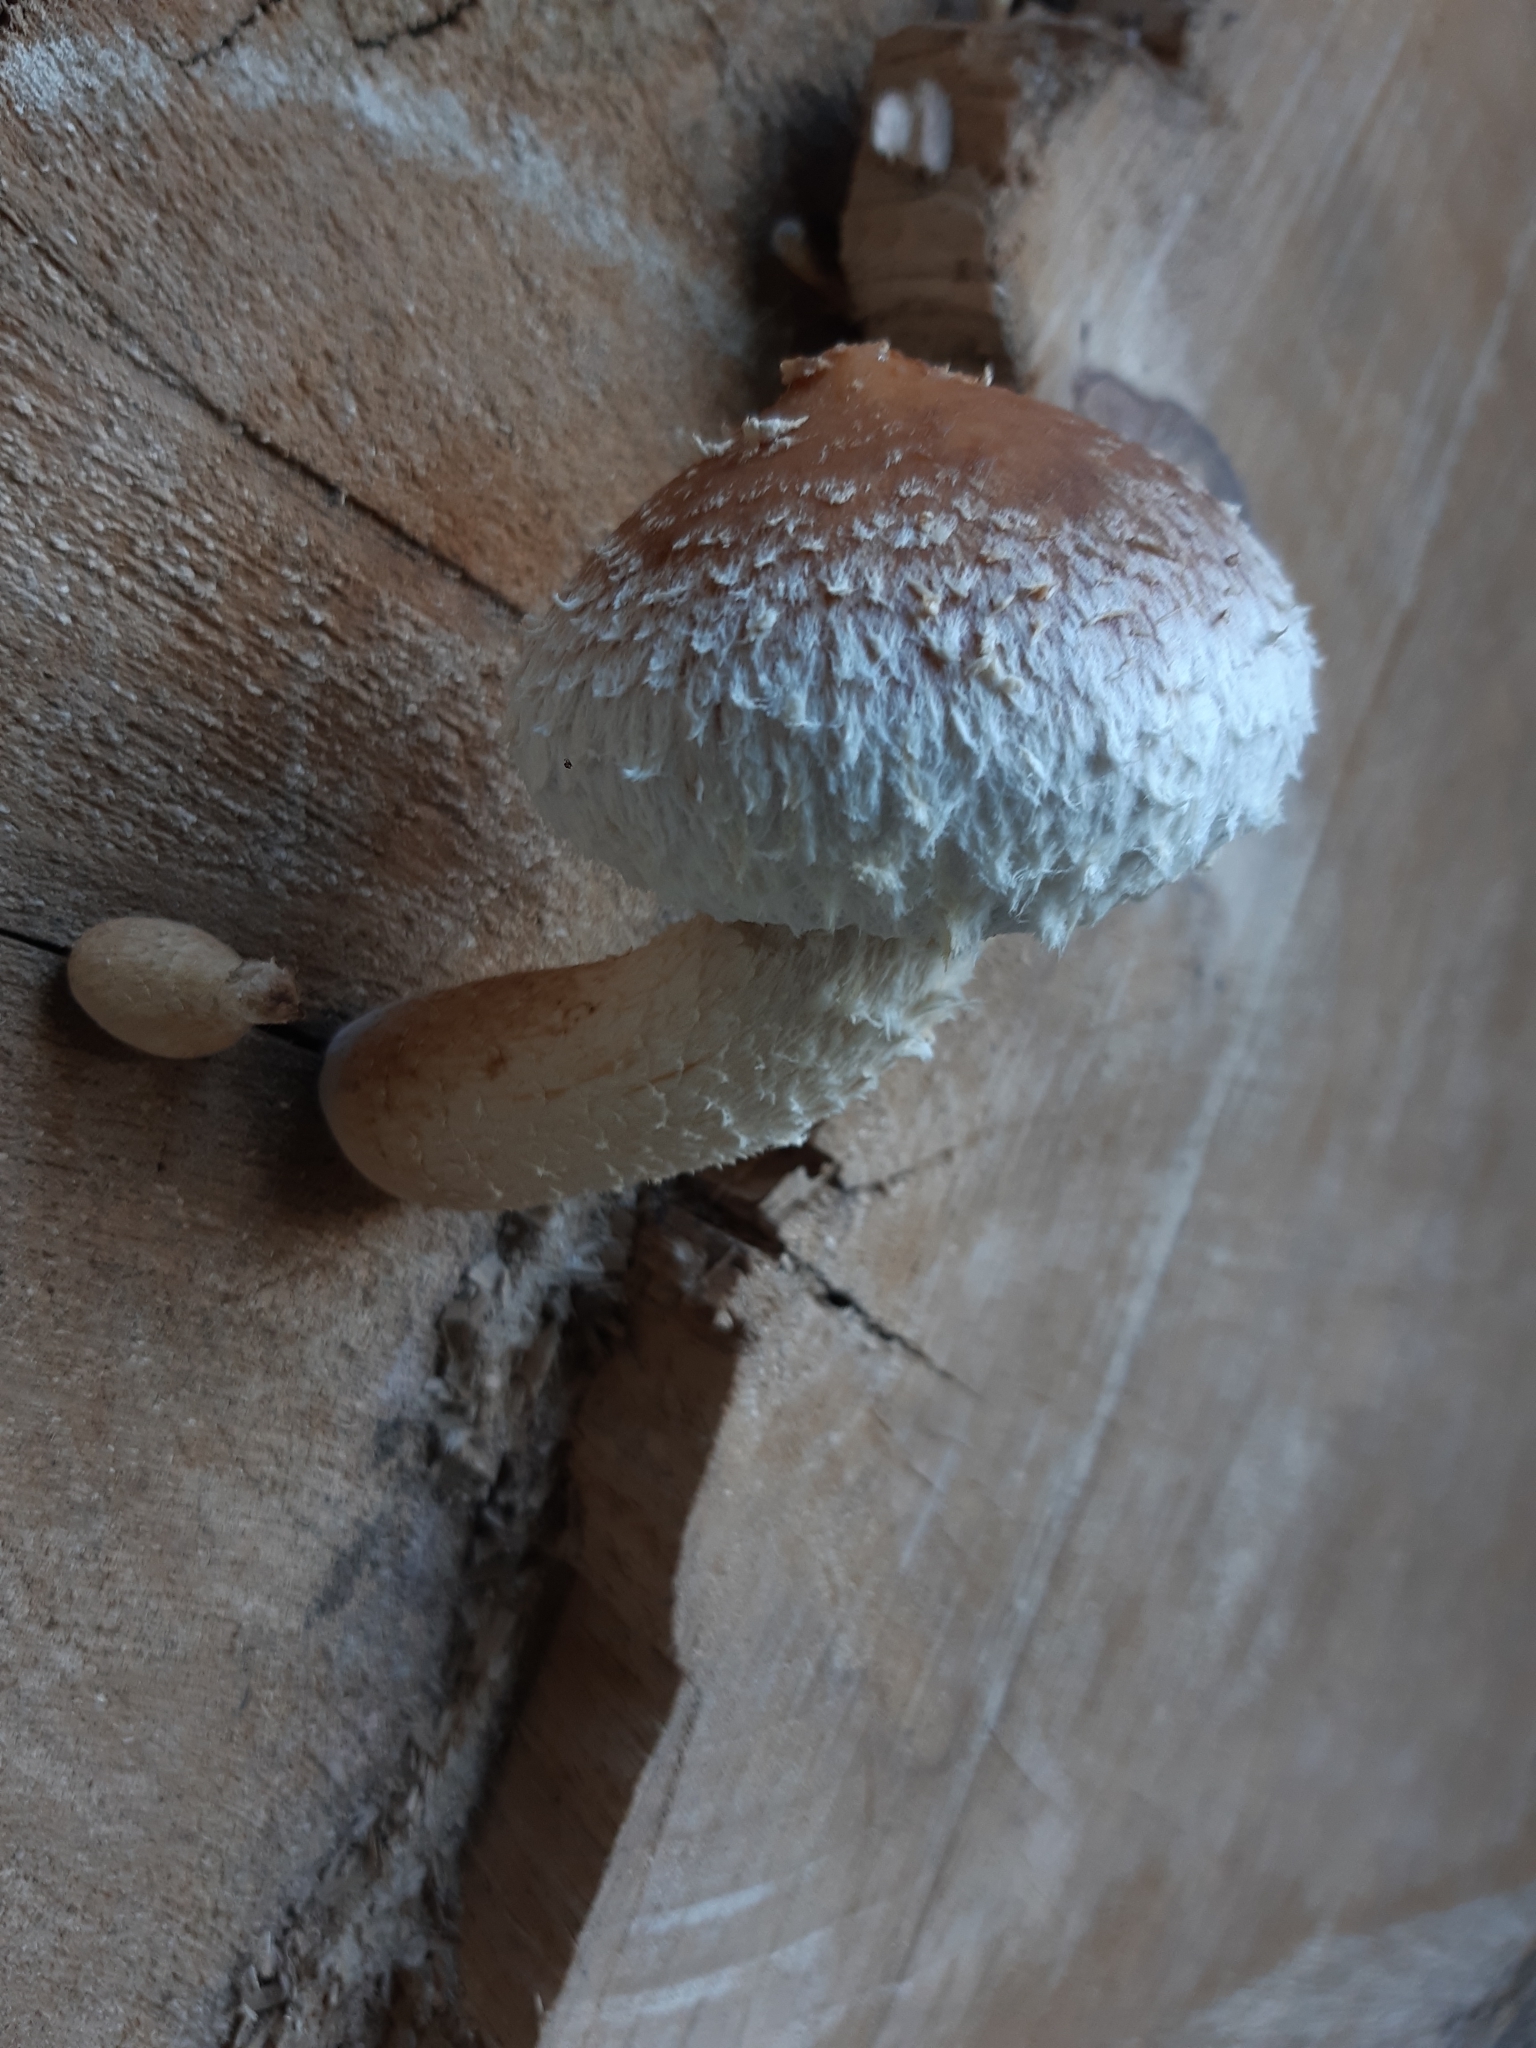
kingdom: Fungi
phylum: Basidiomycota
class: Agaricomycetes
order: Agaricales
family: Strophariaceae
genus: Pholiota
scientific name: Pholiota populnea
